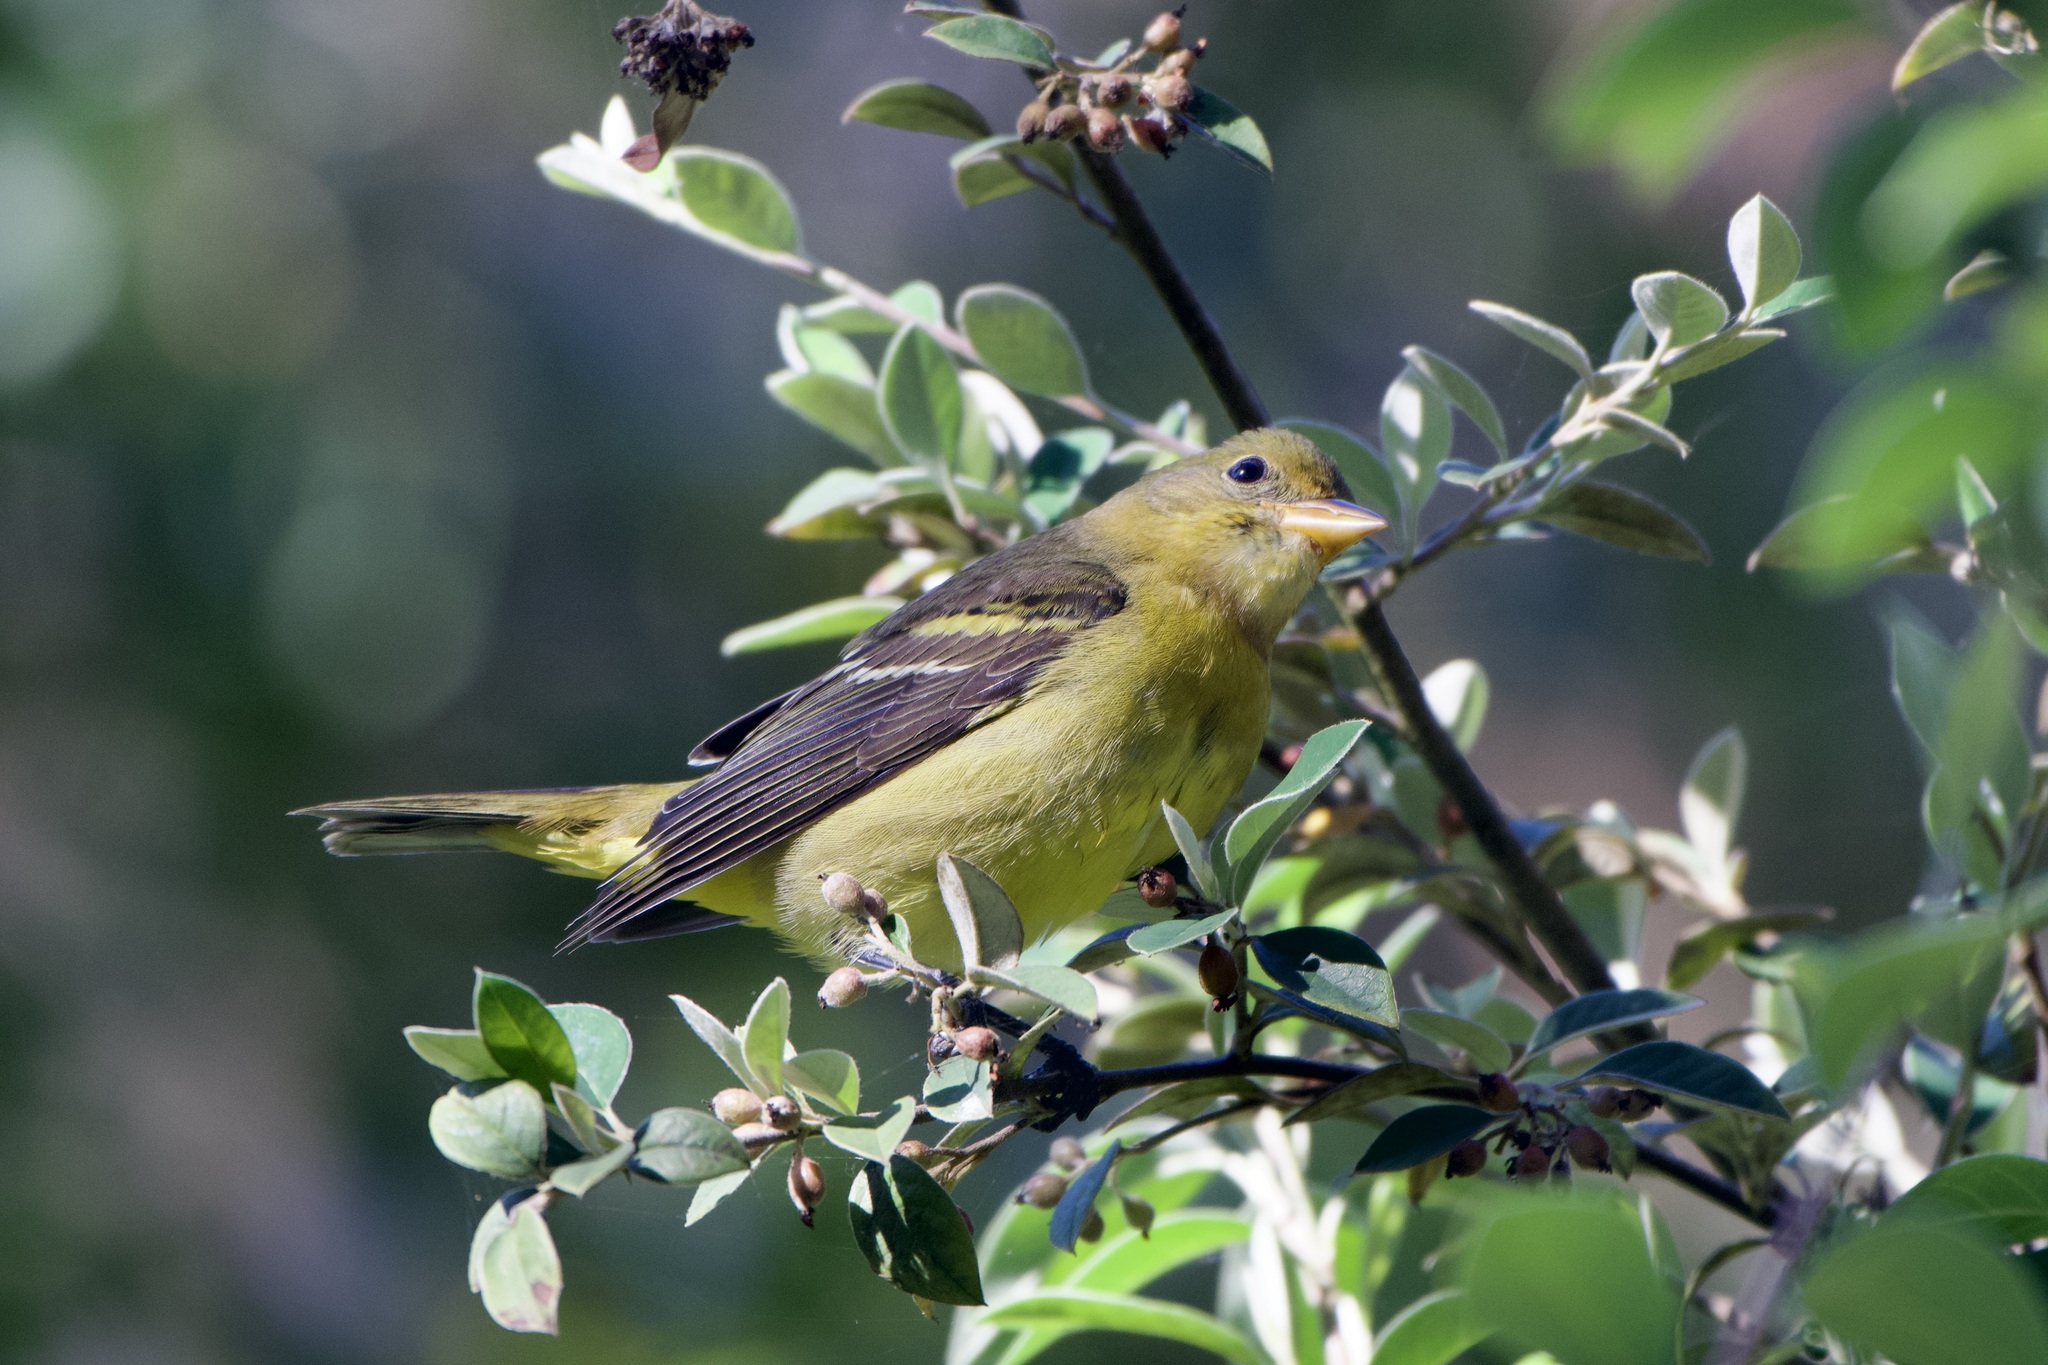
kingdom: Animalia
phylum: Chordata
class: Aves
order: Passeriformes
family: Cardinalidae
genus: Piranga
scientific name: Piranga ludoviciana
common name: Western tanager
